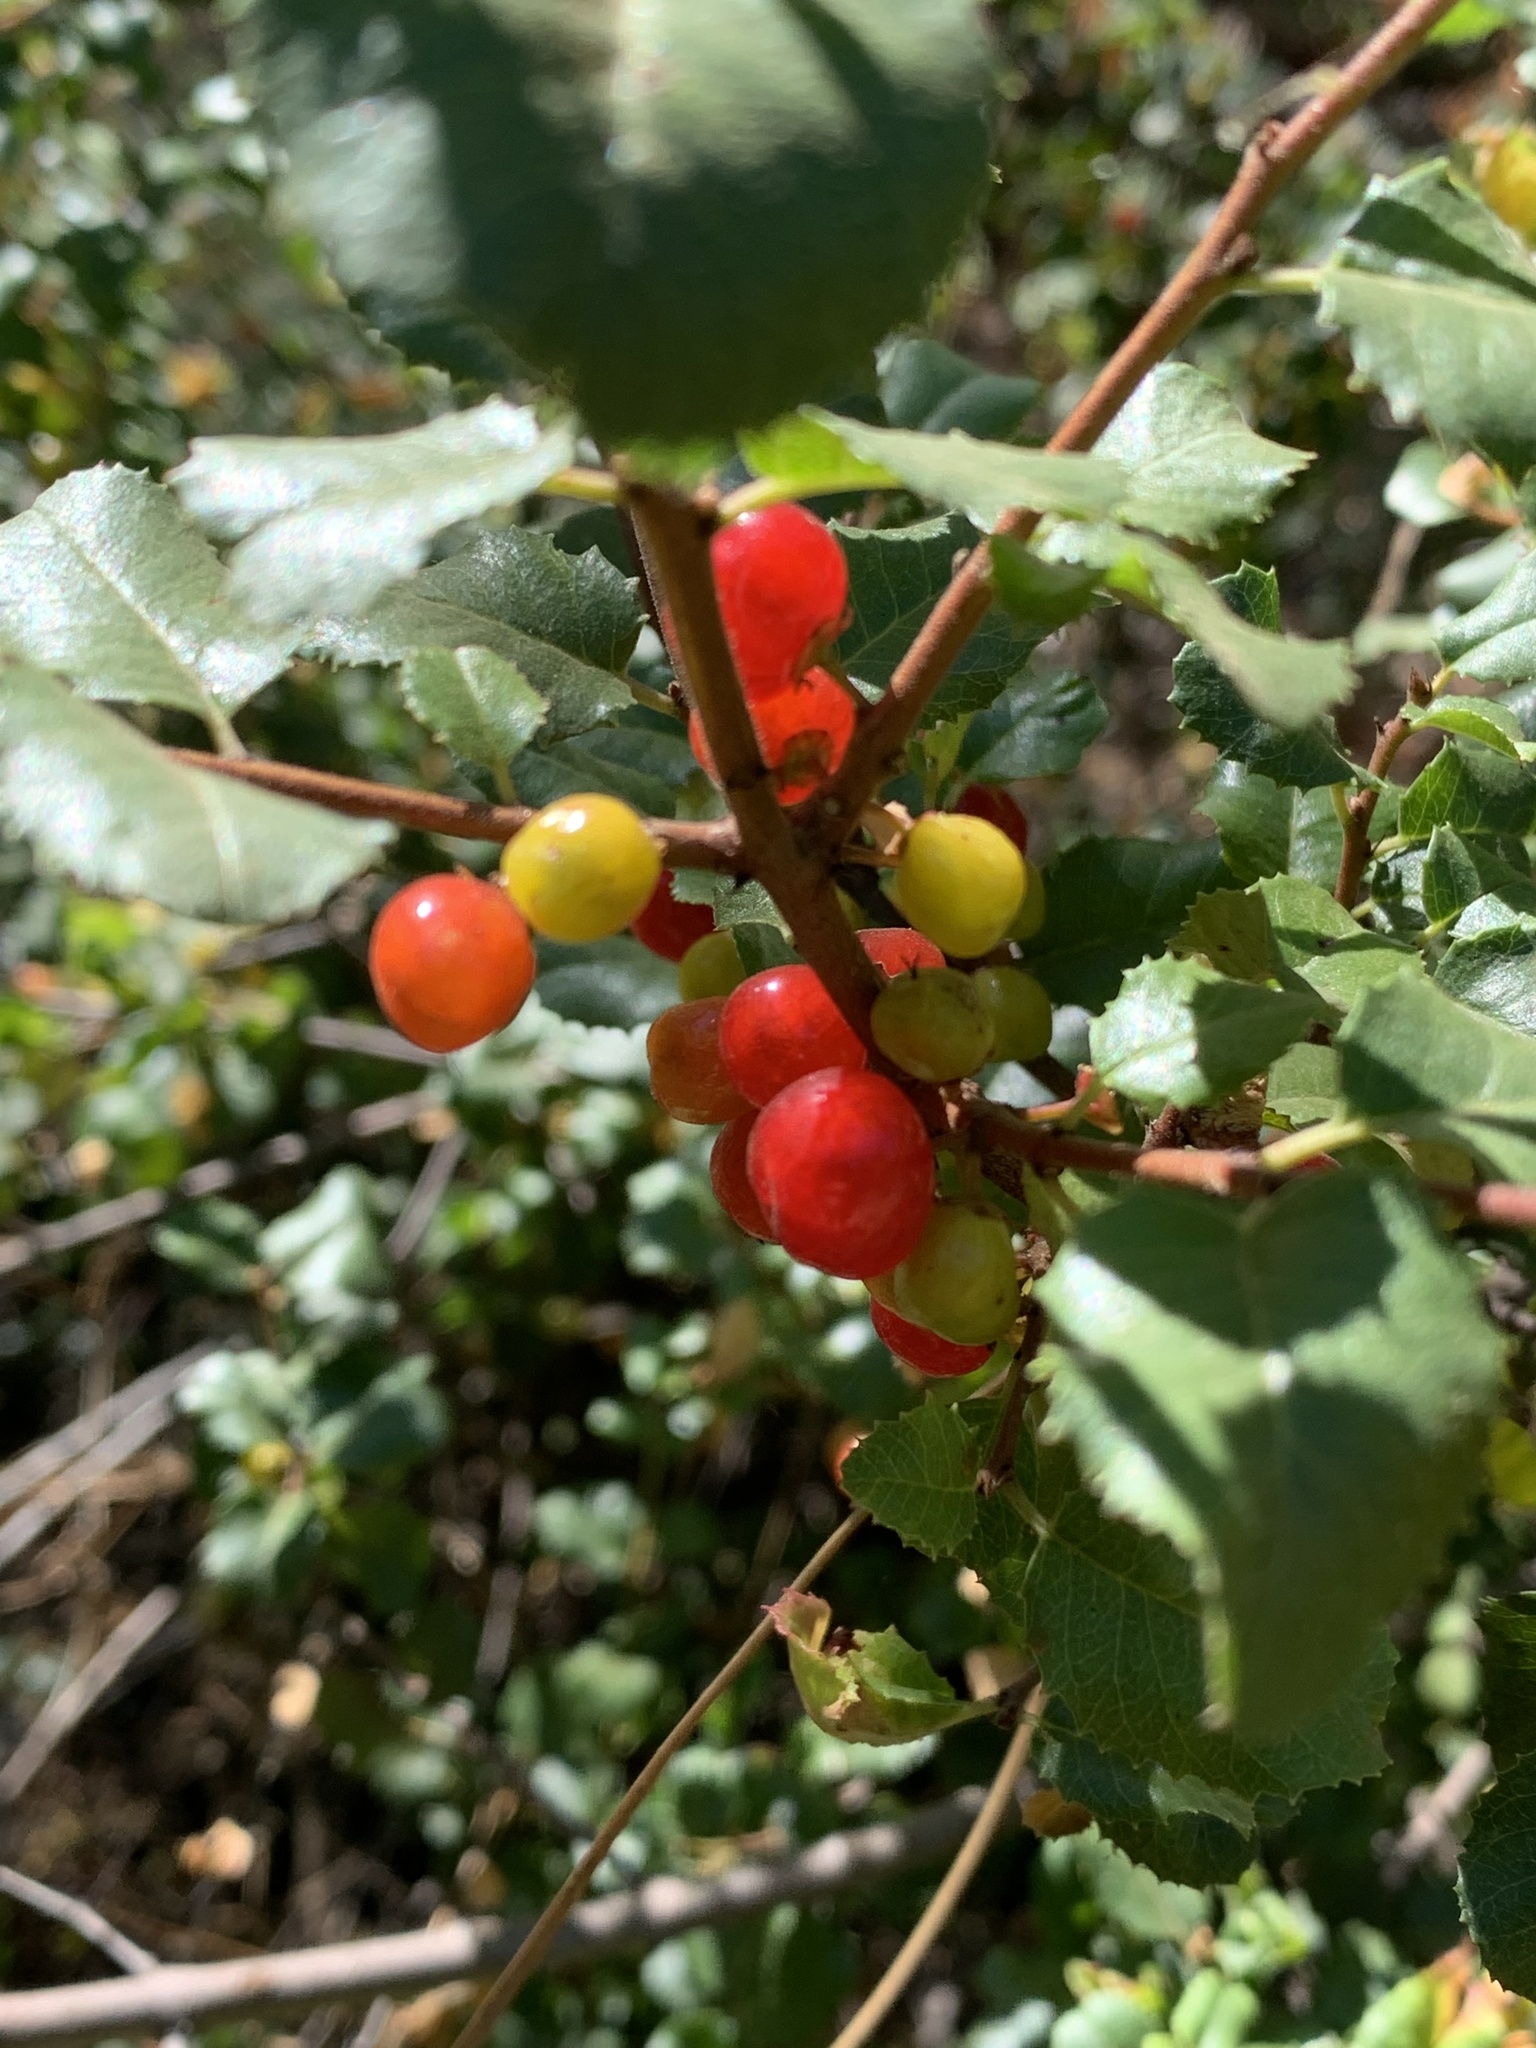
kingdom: Plantae
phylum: Tracheophyta
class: Magnoliopsida
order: Rosales
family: Rhamnaceae
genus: Endotropis
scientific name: Endotropis crocea
